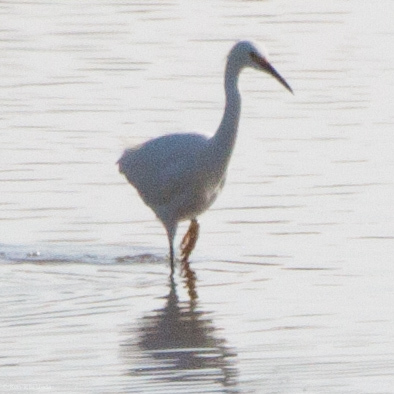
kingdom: Animalia
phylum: Chordata
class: Aves
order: Pelecaniformes
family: Ardeidae
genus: Egretta
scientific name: Egretta thula
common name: Snowy egret
